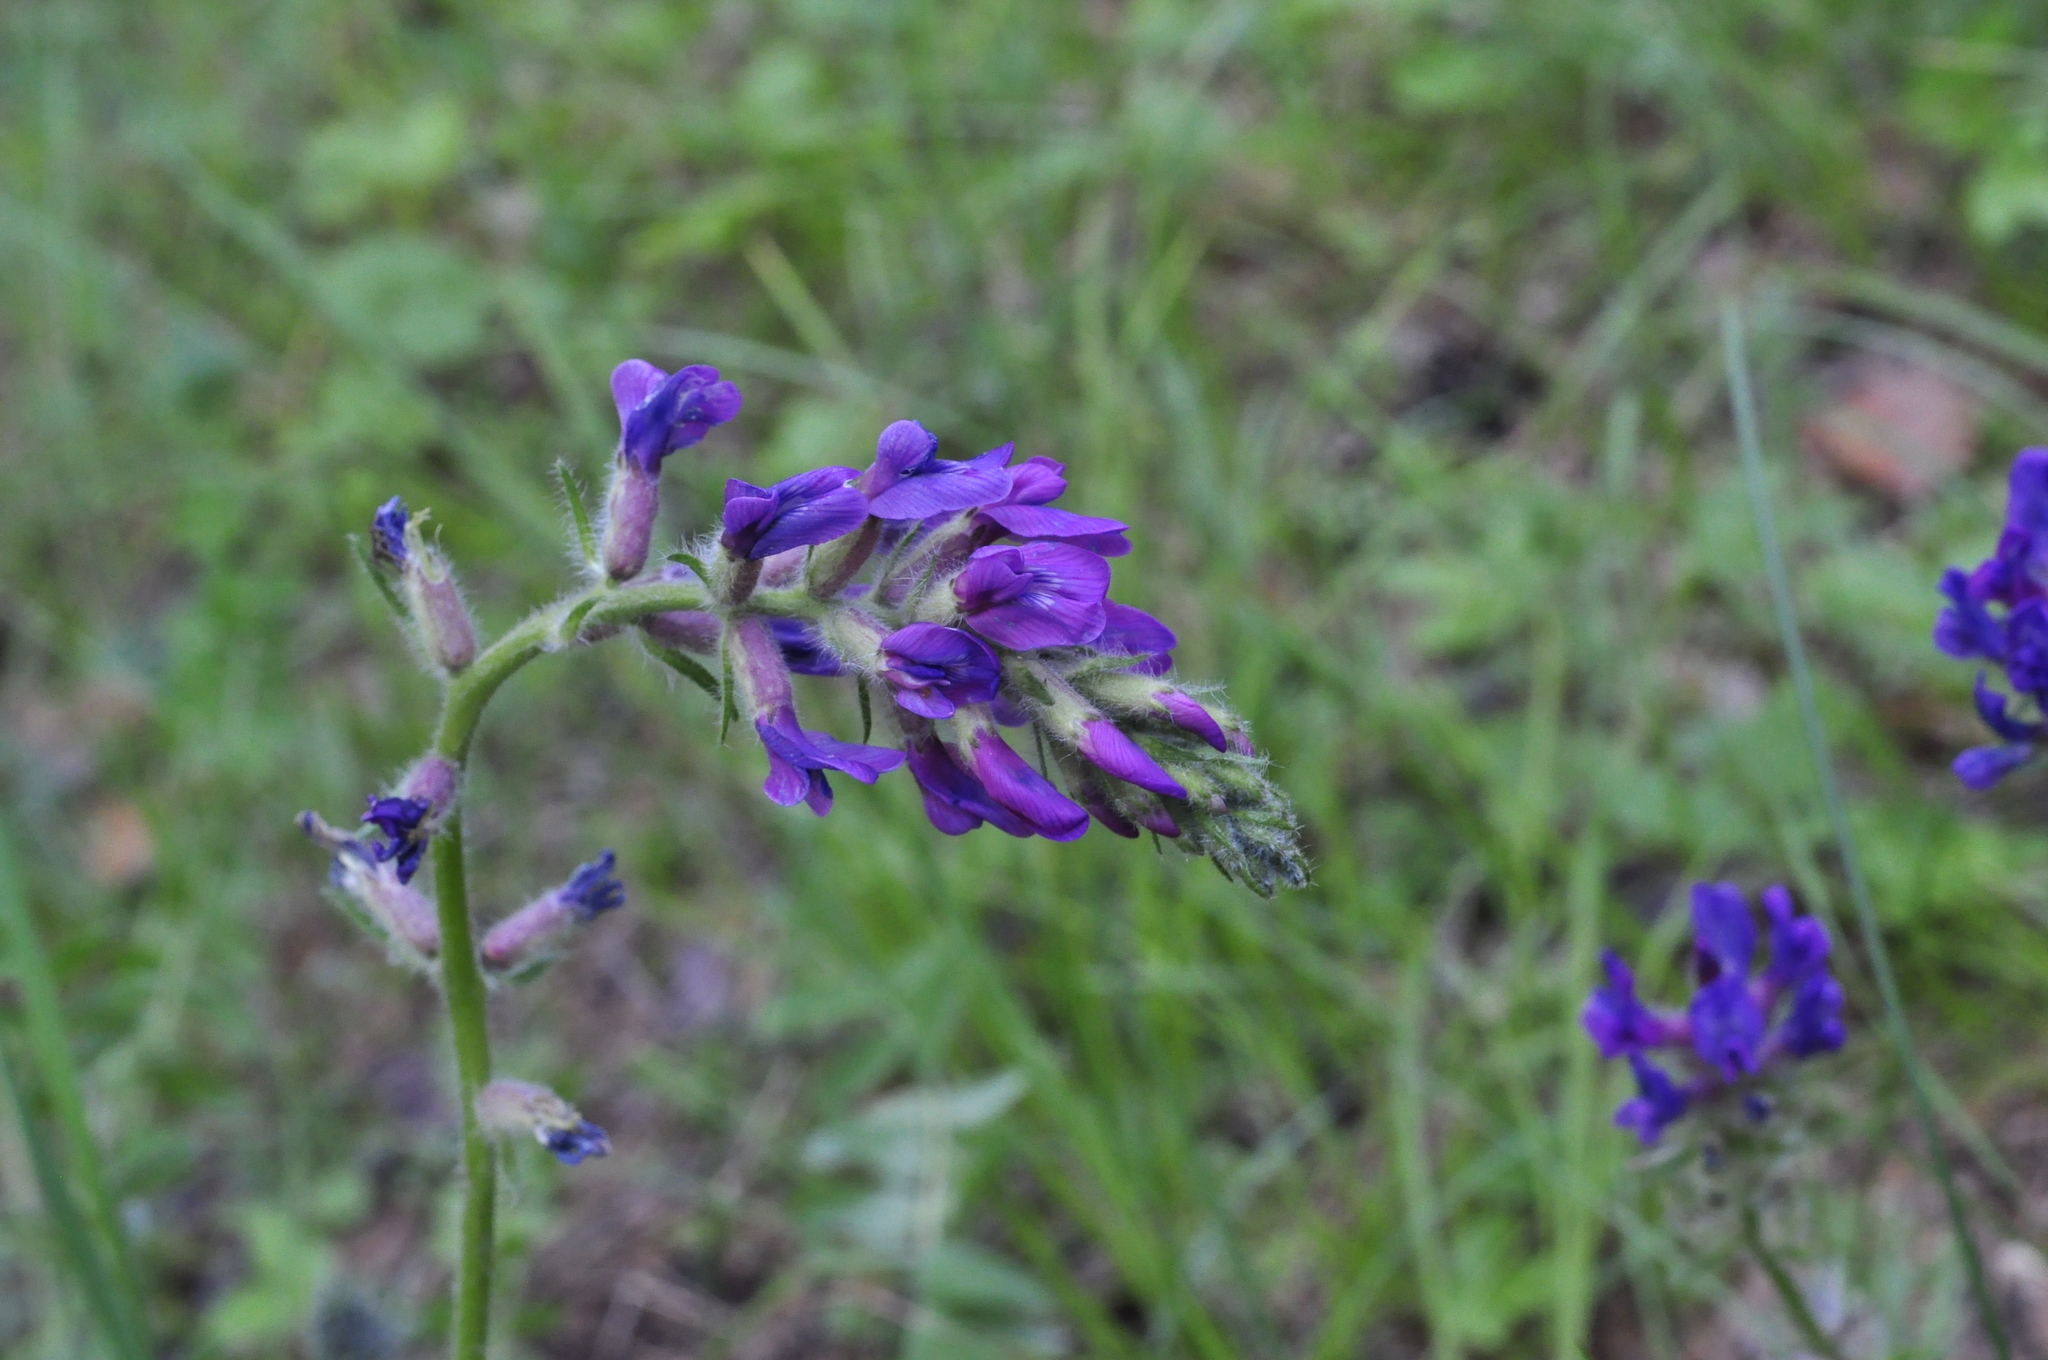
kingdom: Plantae
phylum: Tracheophyta
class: Magnoliopsida
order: Fabales
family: Fabaceae
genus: Oxytropis
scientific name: Oxytropis campanulata
